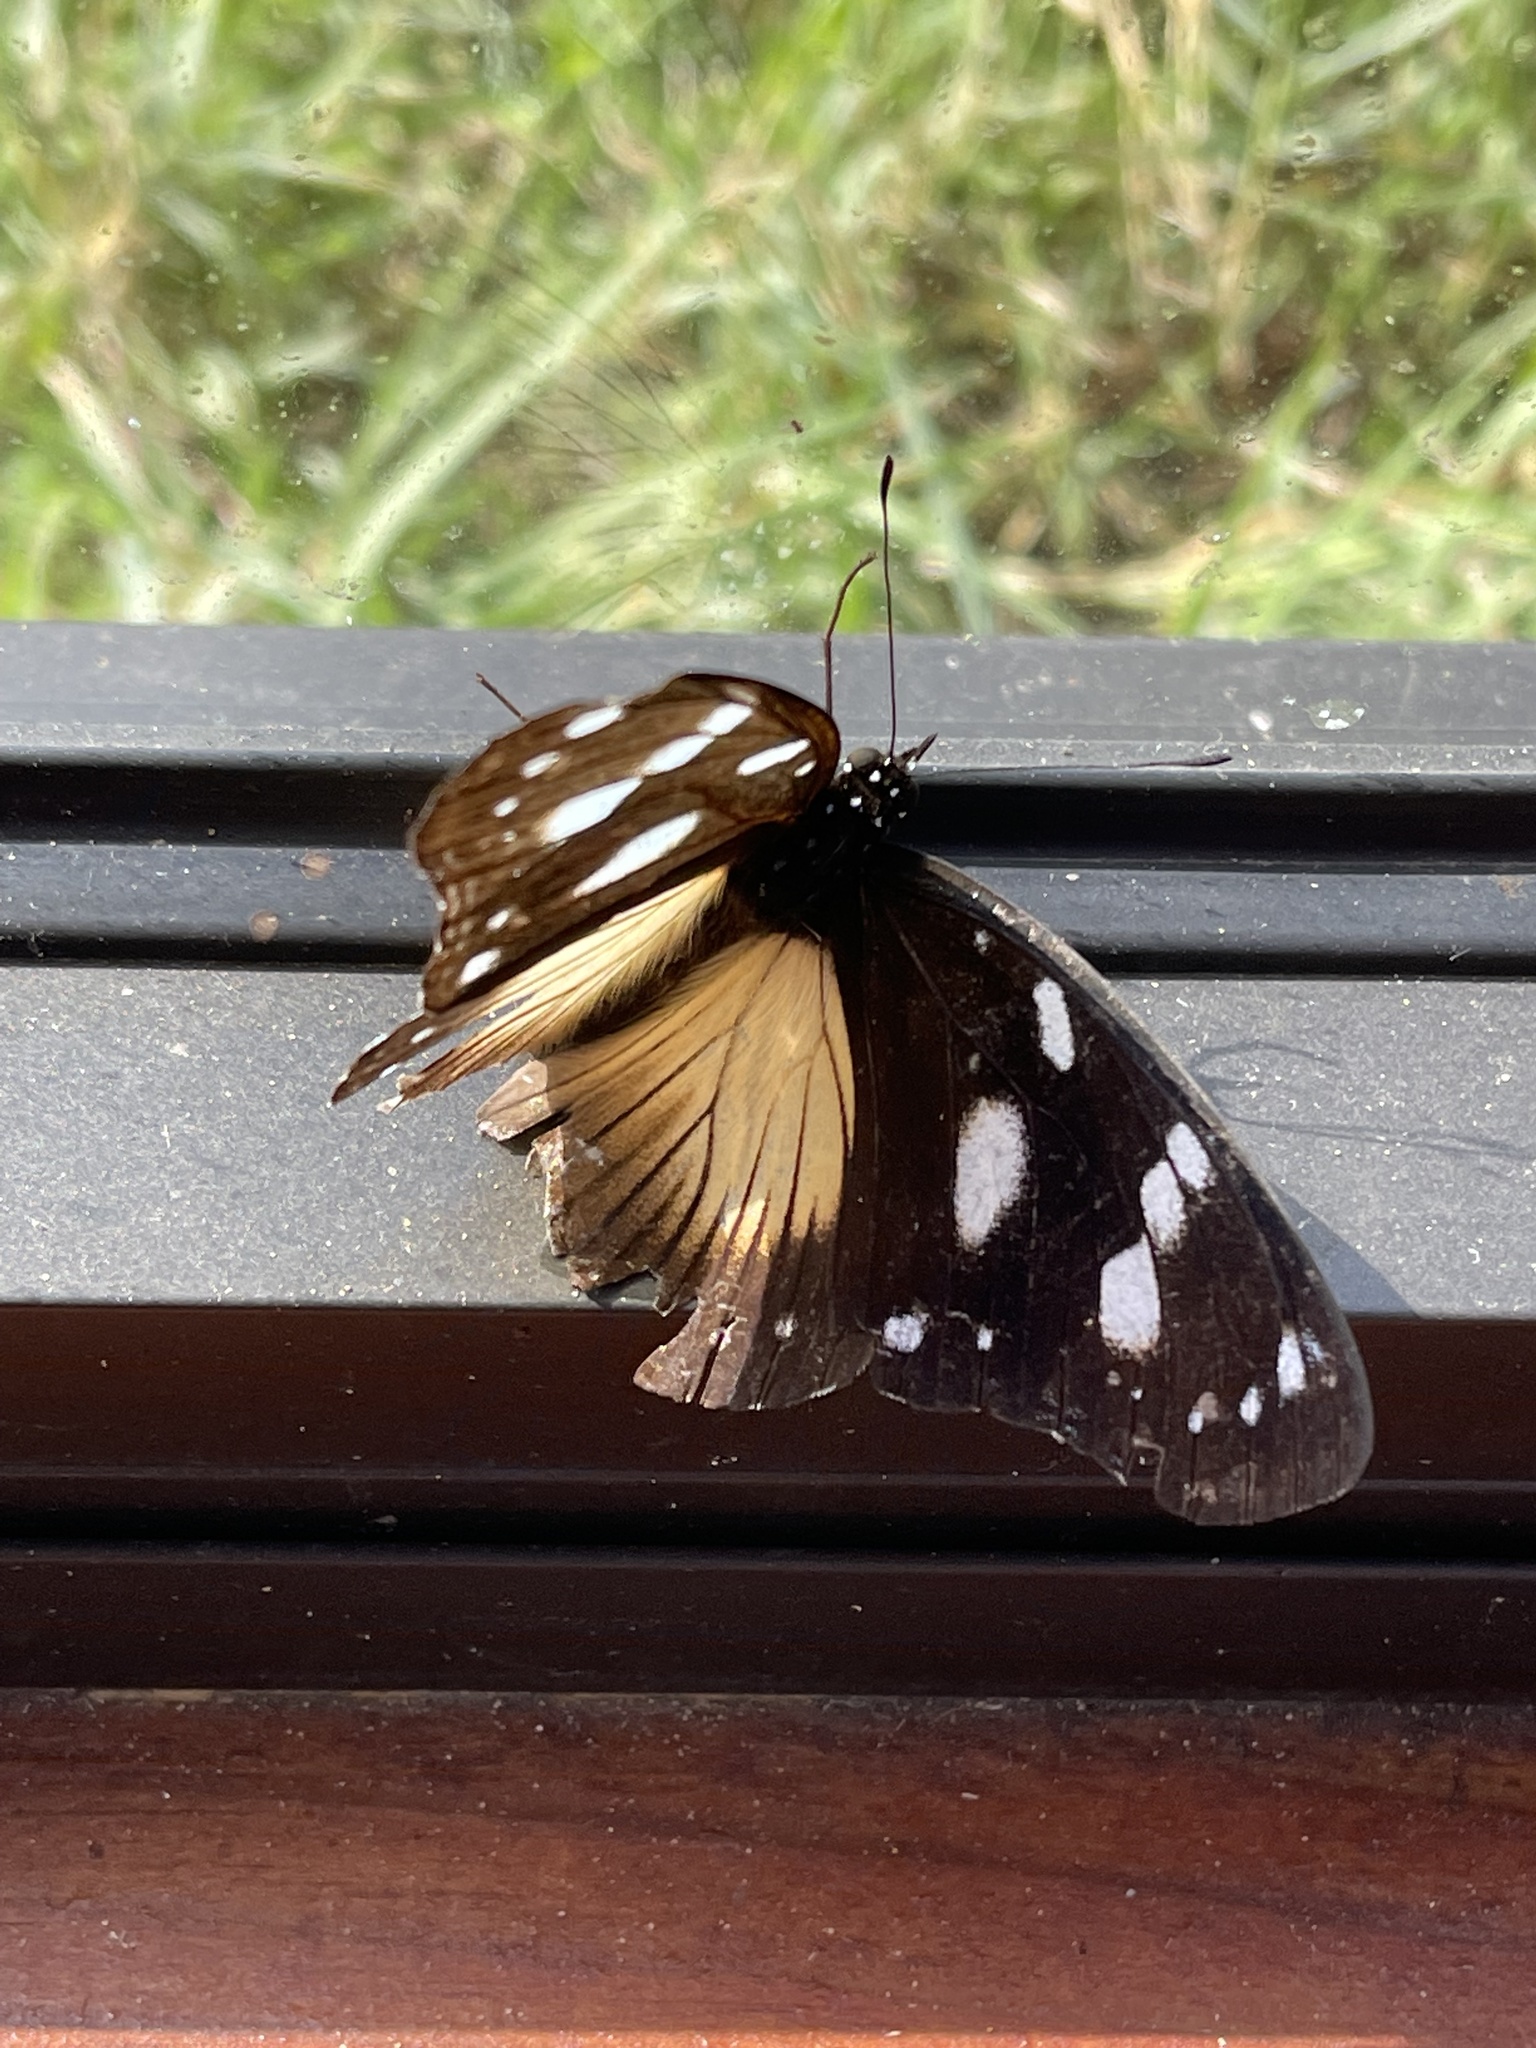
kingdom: Animalia
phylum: Arthropoda
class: Insecta
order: Lepidoptera
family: Nymphalidae
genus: Hypolimnas
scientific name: Hypolimnas dubius
